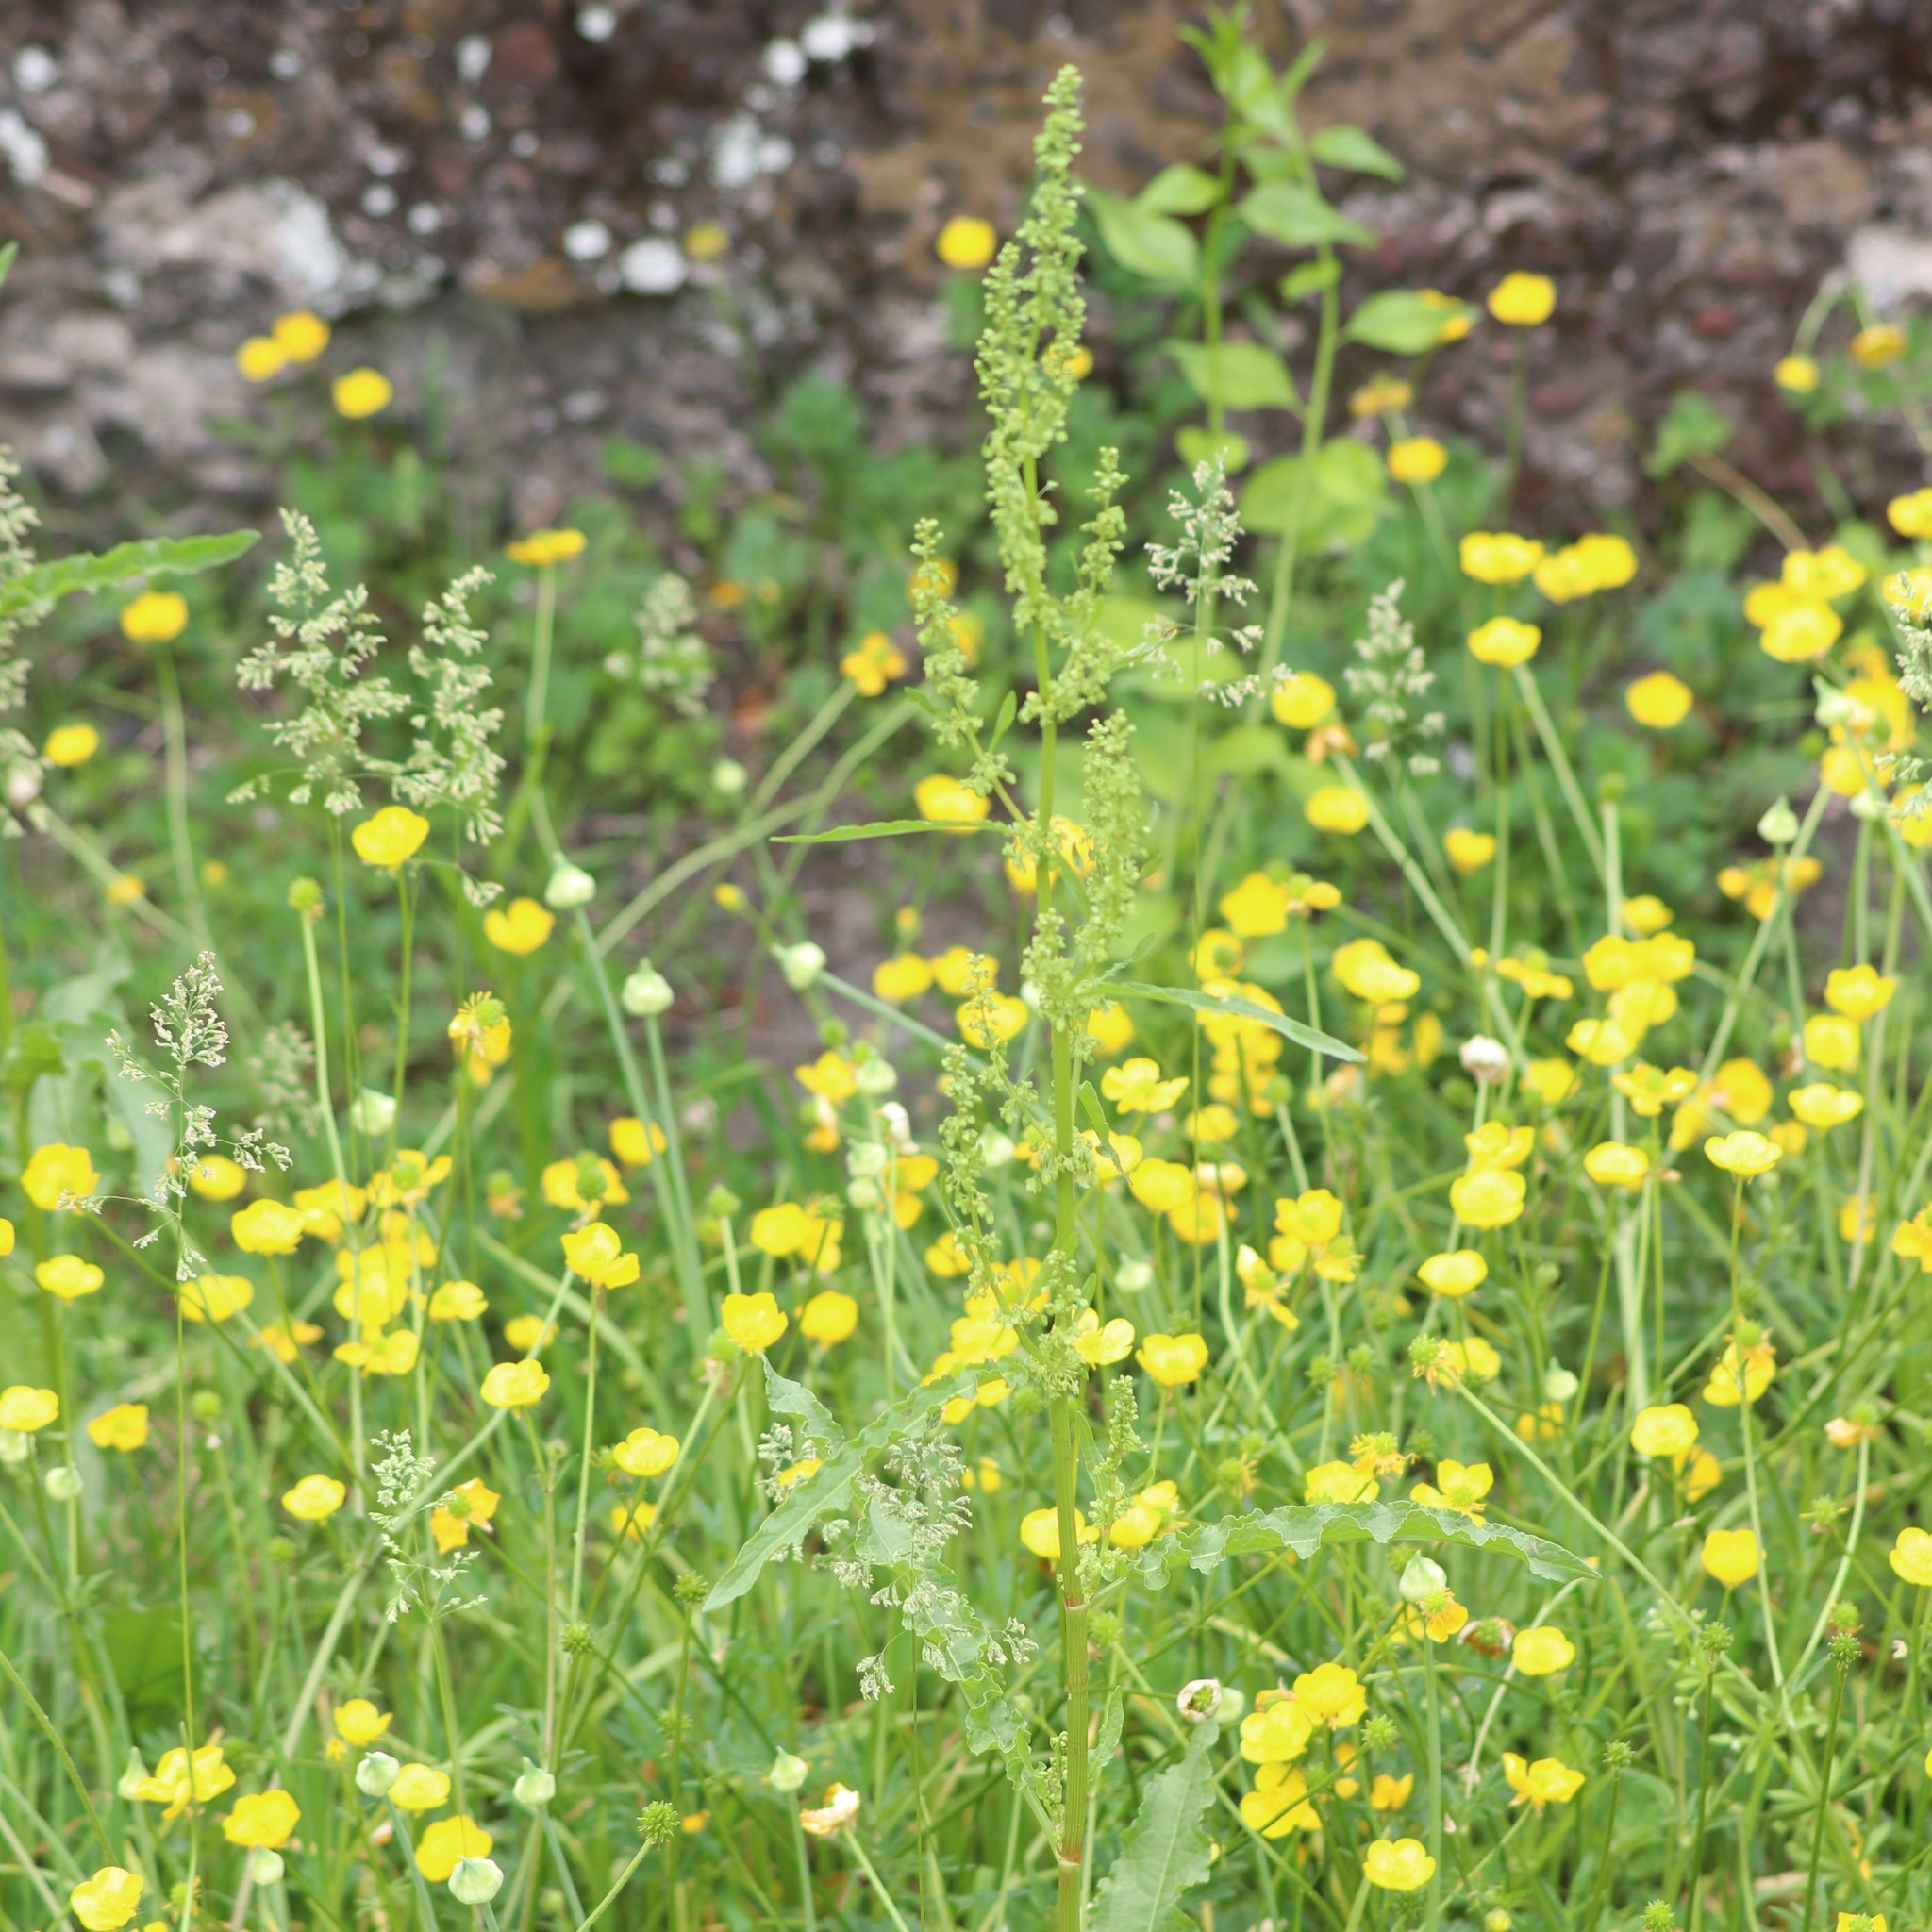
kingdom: Plantae
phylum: Tracheophyta
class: Magnoliopsida
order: Caryophyllales
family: Polygonaceae
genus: Rumex
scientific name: Rumex crispus
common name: Curled dock
